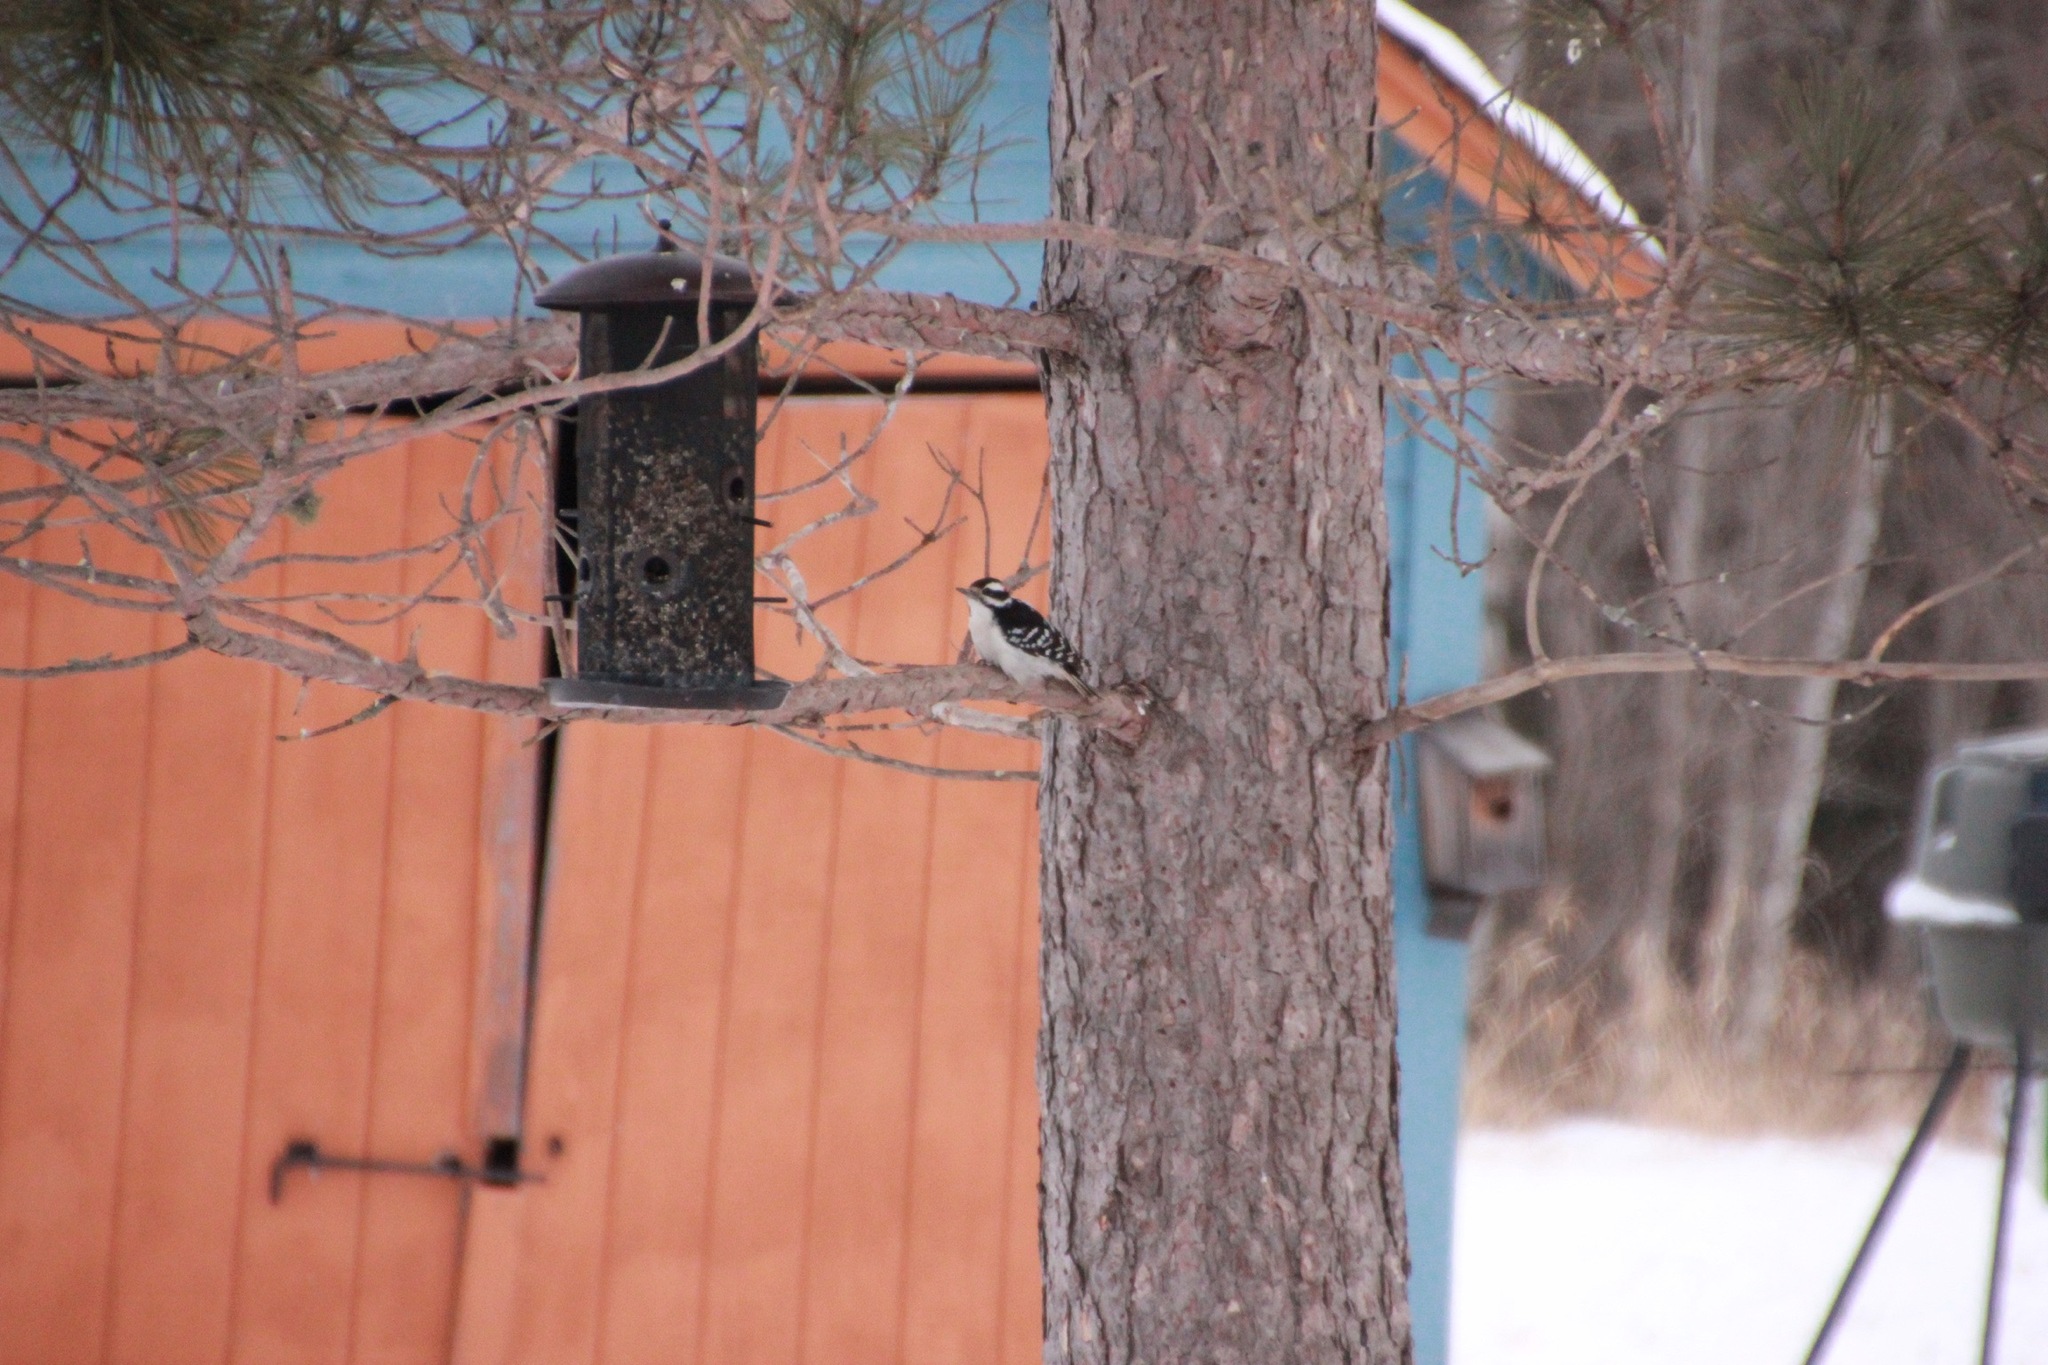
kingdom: Animalia
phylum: Chordata
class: Aves
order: Piciformes
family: Picidae
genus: Leuconotopicus
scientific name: Leuconotopicus villosus
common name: Hairy woodpecker
